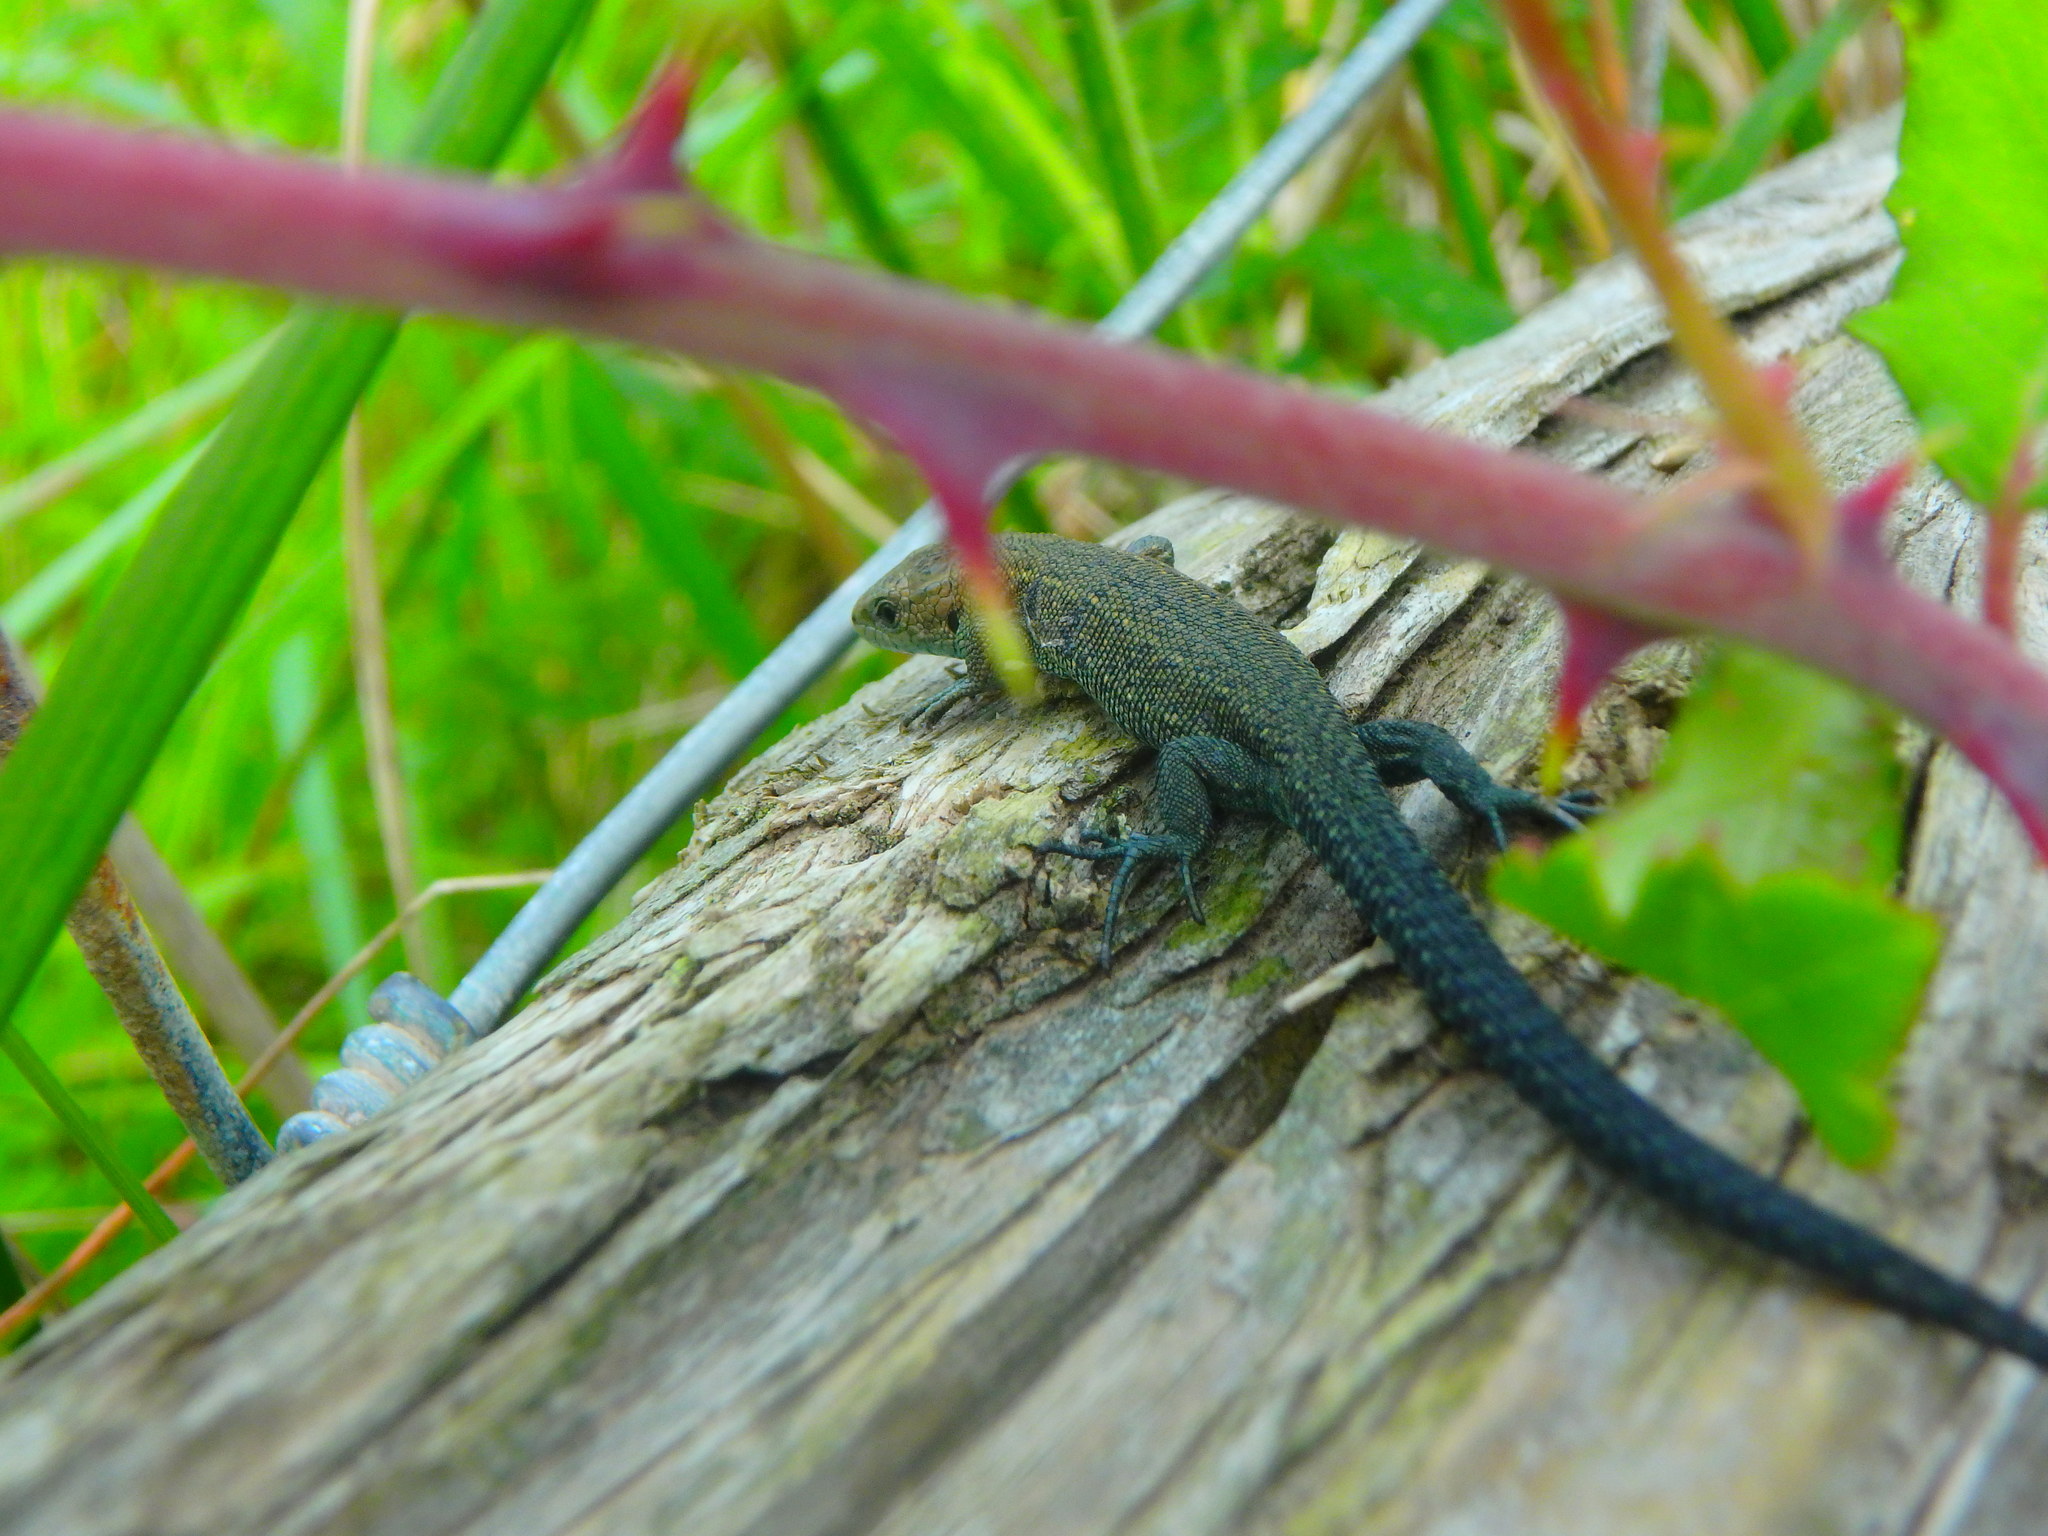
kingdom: Animalia
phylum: Chordata
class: Squamata
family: Lacertidae
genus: Zootoca
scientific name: Zootoca vivipara
